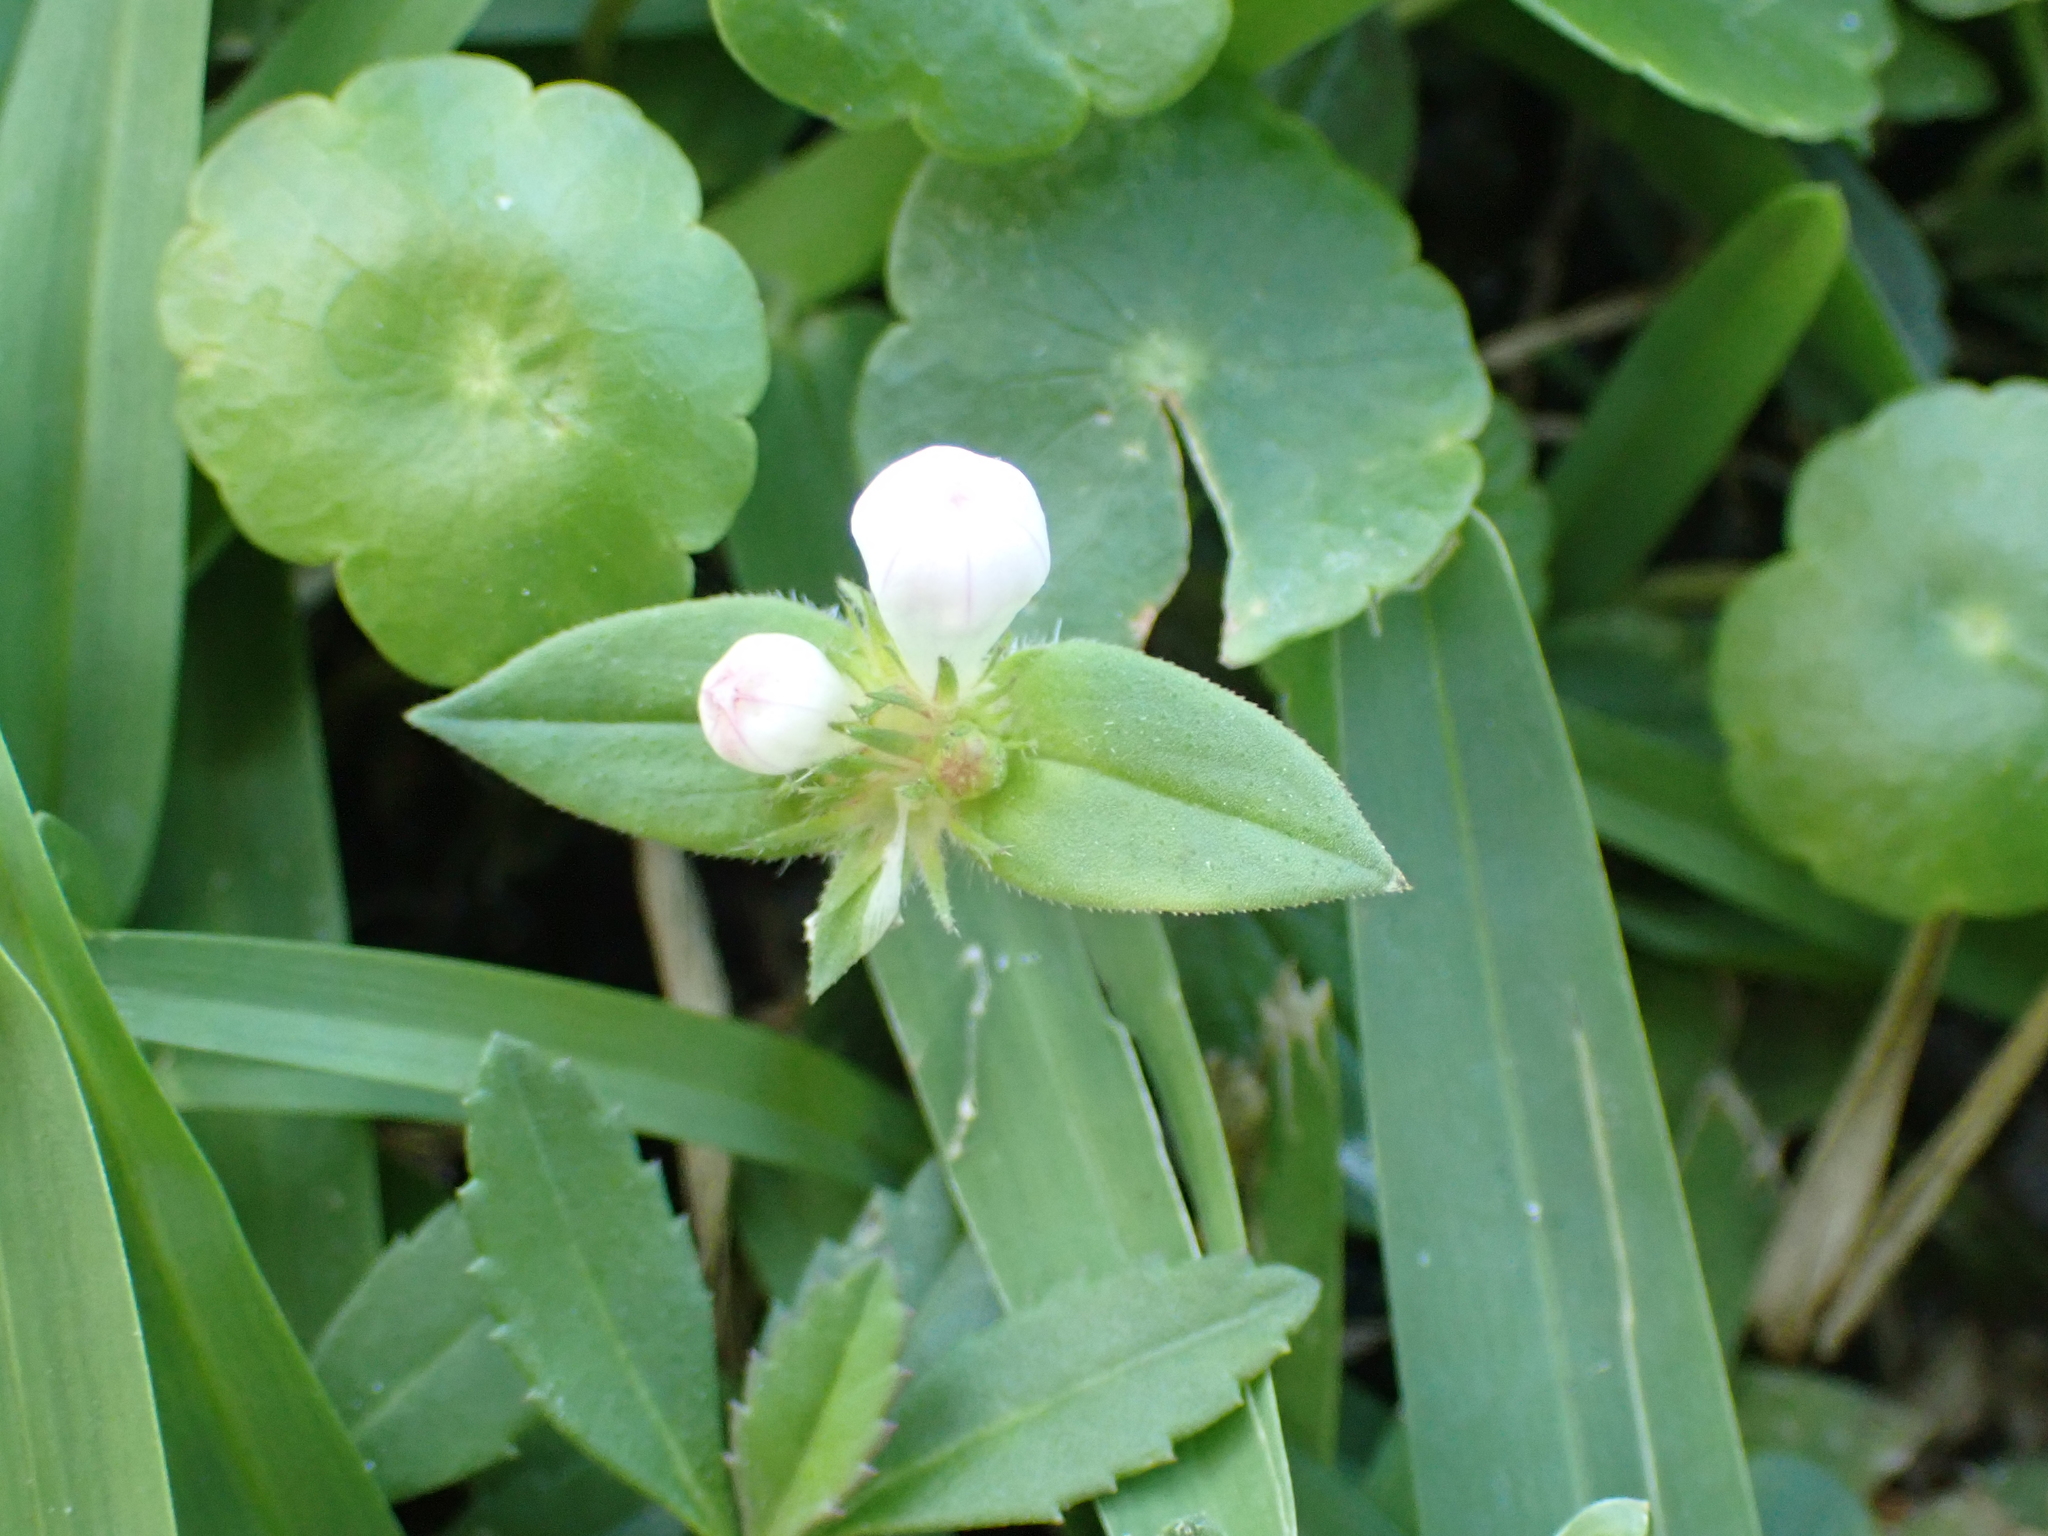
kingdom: Plantae
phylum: Tracheophyta
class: Magnoliopsida
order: Gentianales
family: Rubiaceae
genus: Richardia
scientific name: Richardia grandiflora
